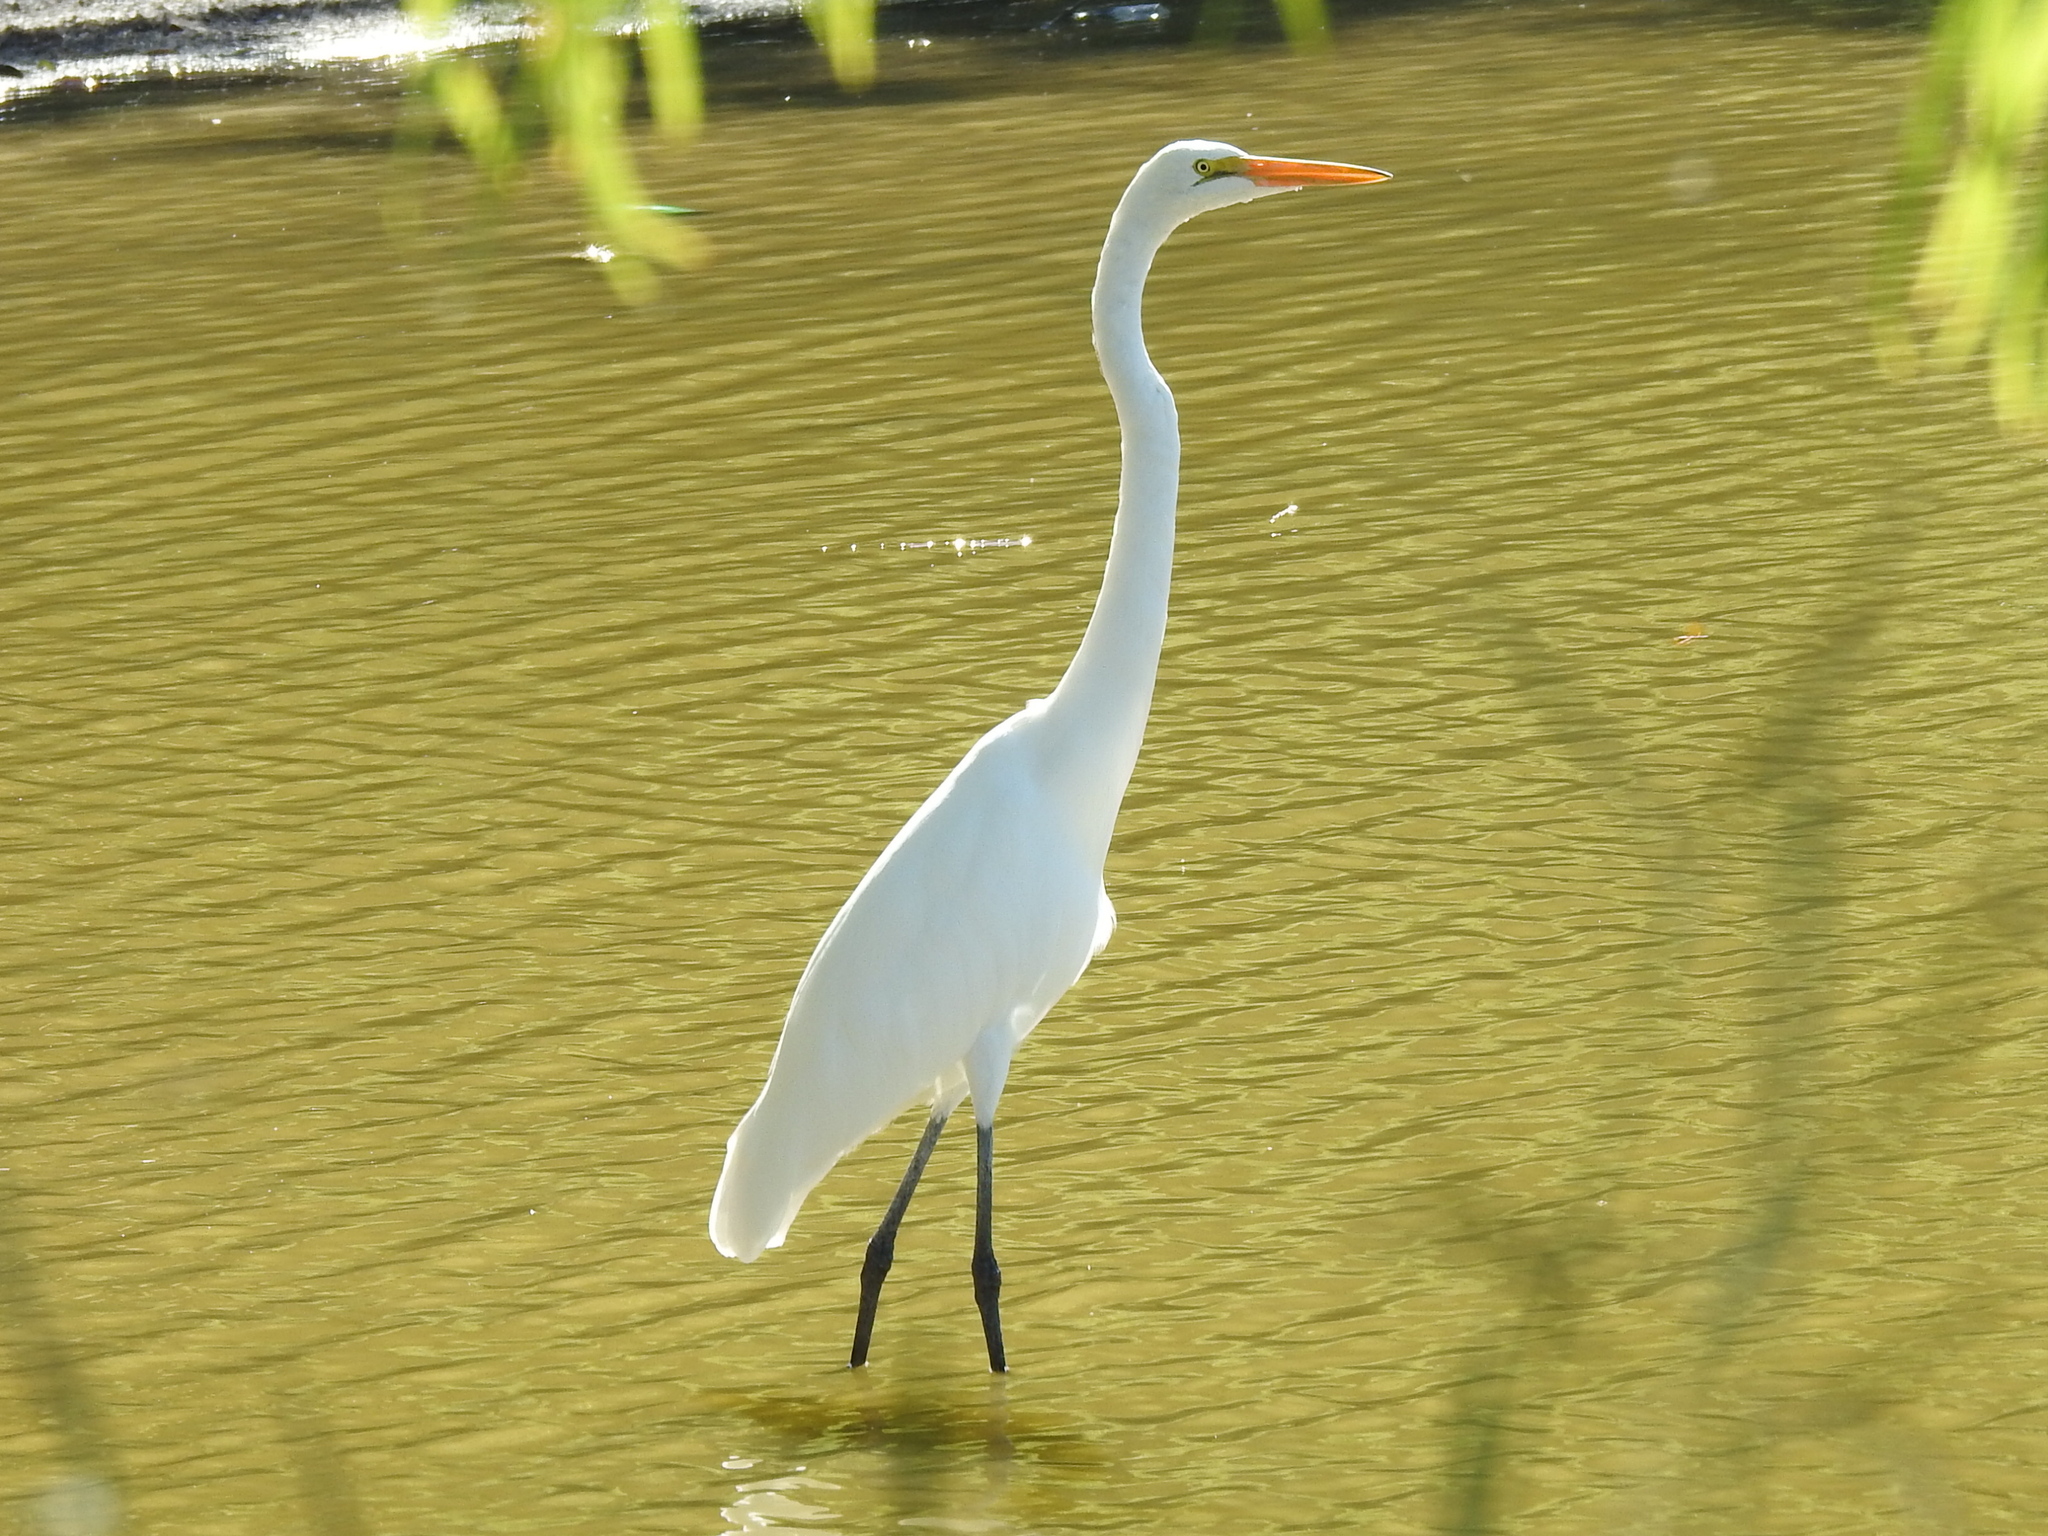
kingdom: Animalia
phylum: Chordata
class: Aves
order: Pelecaniformes
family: Ardeidae
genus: Ardea
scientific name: Ardea alba
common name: Great egret
